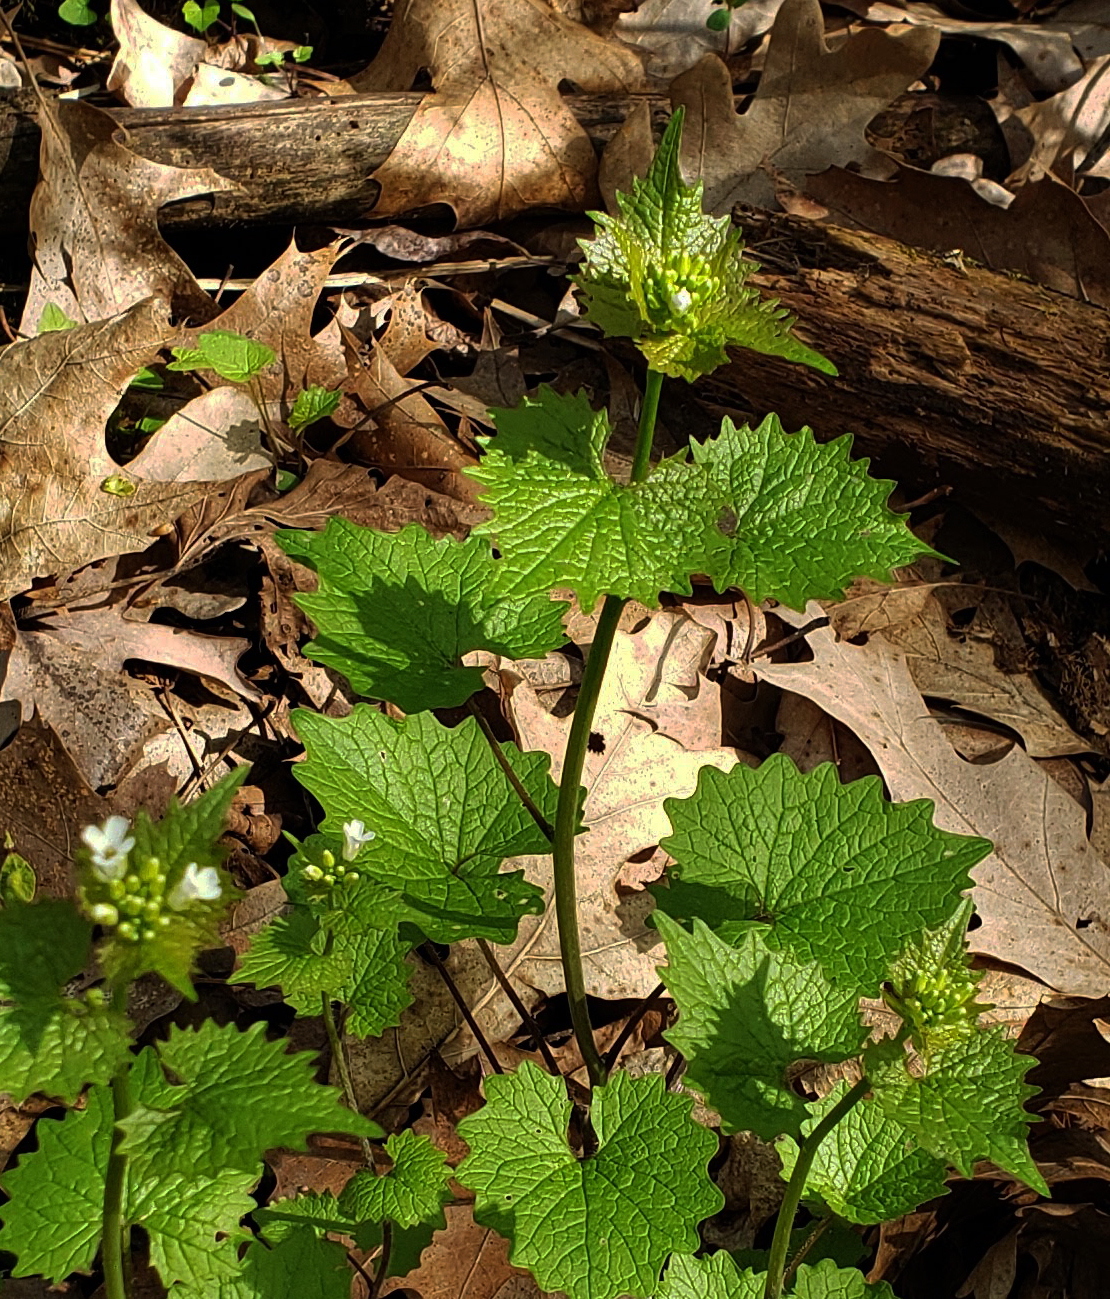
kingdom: Plantae
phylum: Tracheophyta
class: Magnoliopsida
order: Brassicales
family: Brassicaceae
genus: Alliaria
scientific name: Alliaria petiolata
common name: Garlic mustard
